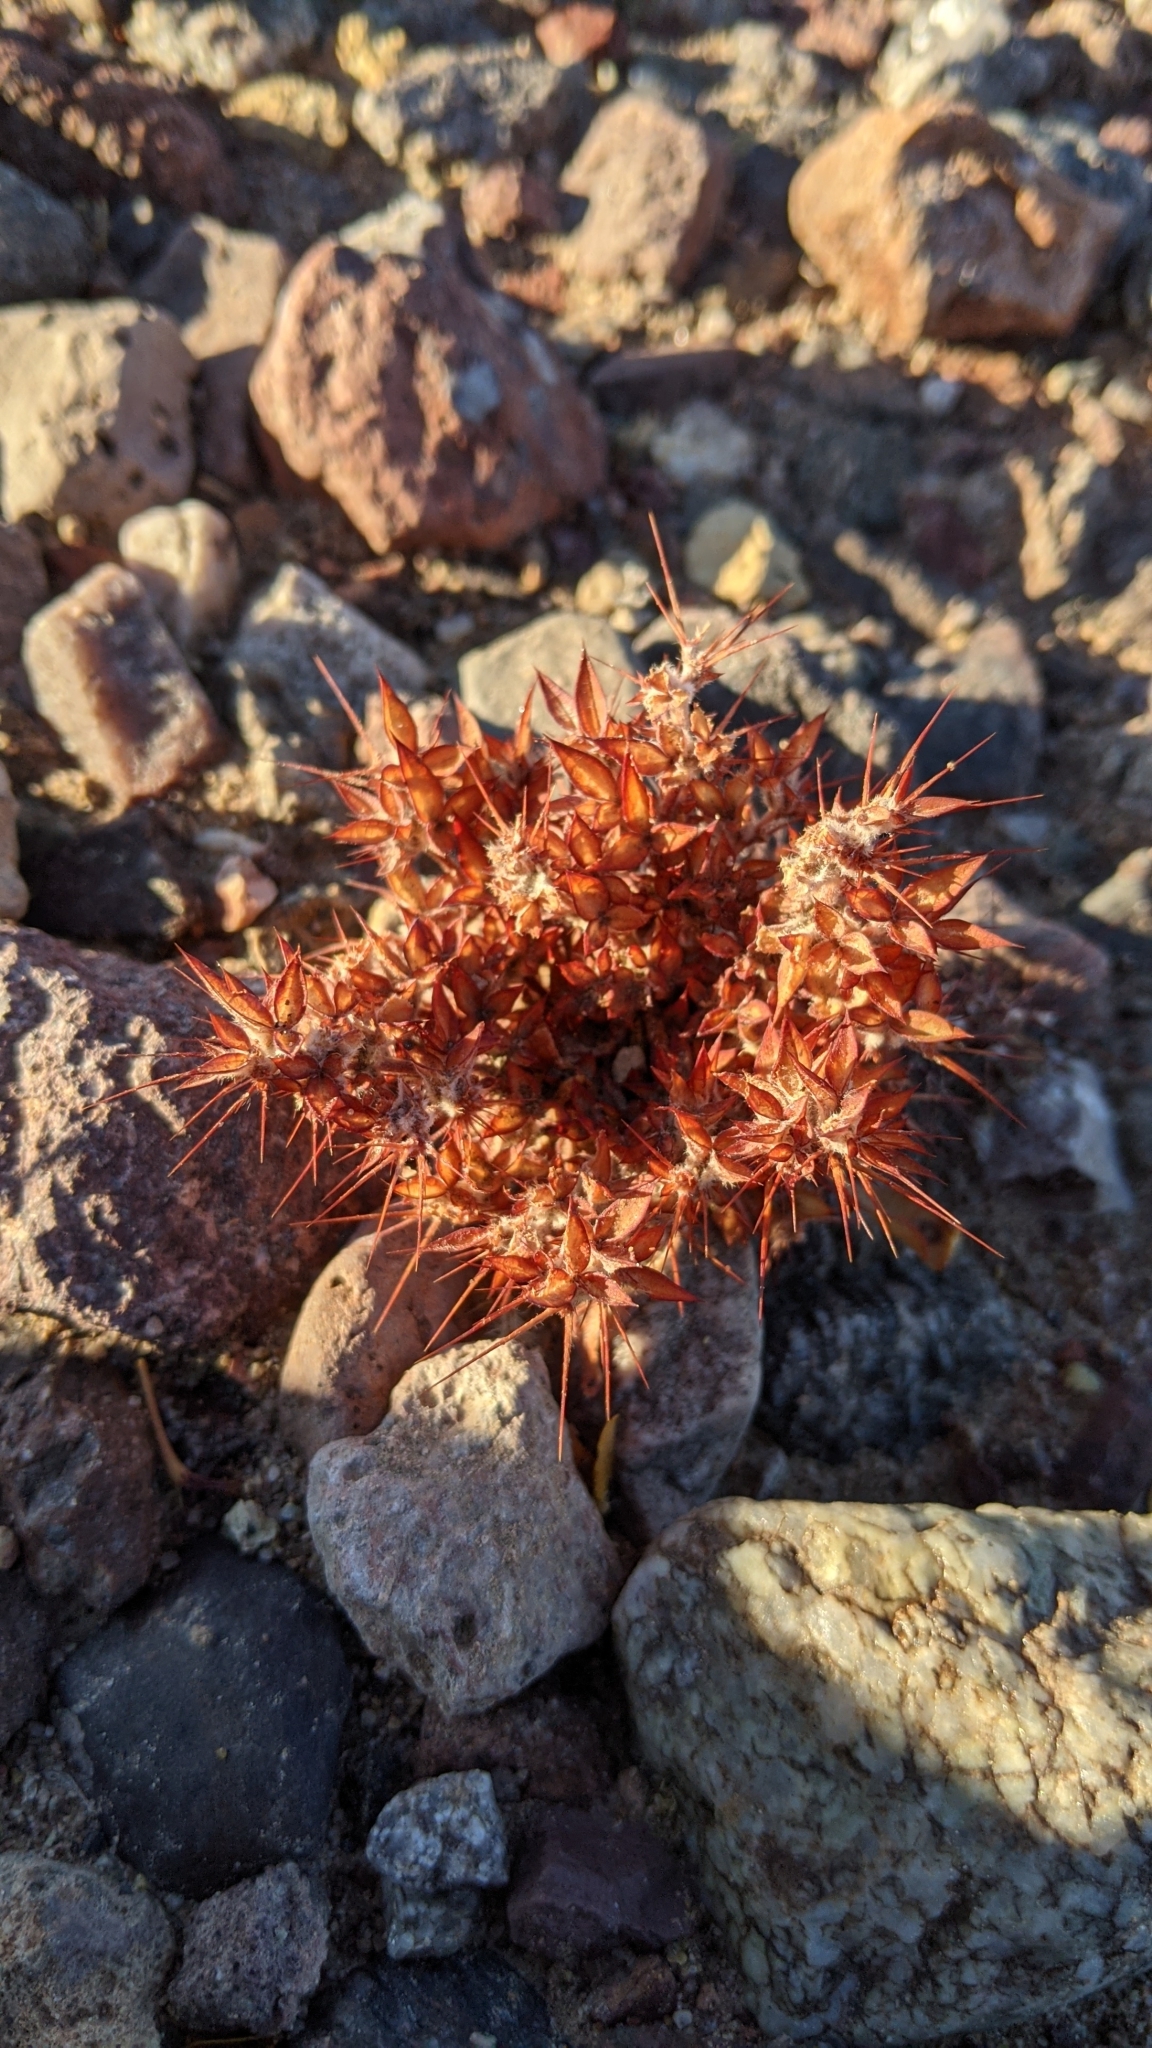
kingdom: Plantae
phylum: Tracheophyta
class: Magnoliopsida
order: Caryophyllales
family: Polygonaceae
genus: Chorizanthe
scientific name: Chorizanthe rigida
